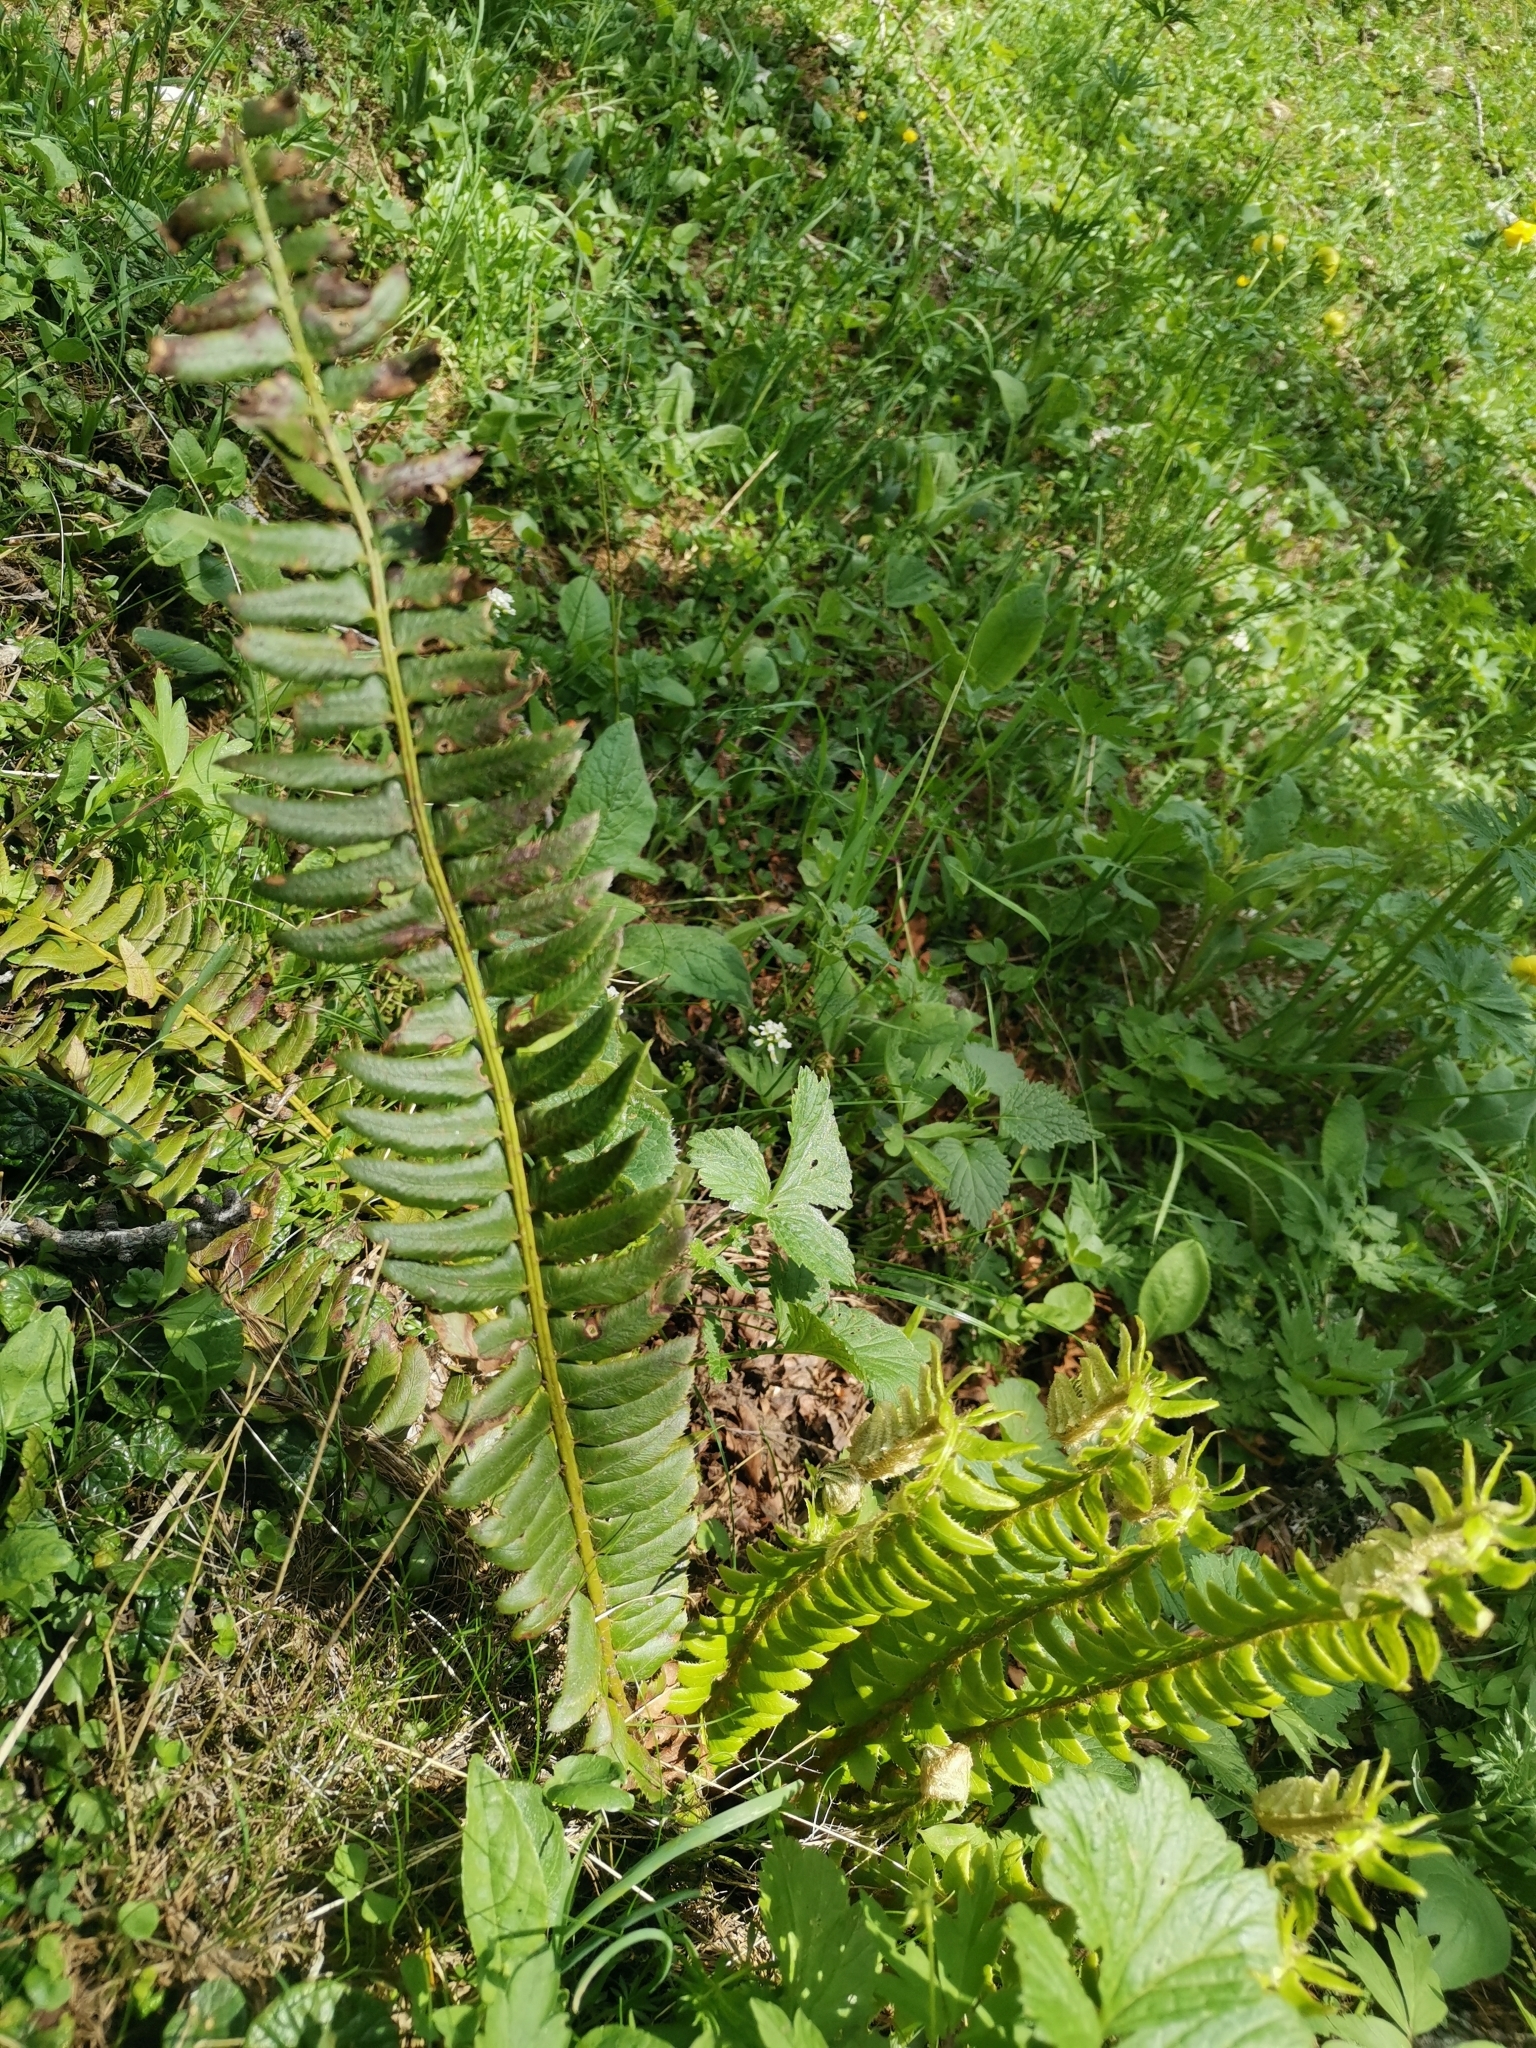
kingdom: Plantae
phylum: Tracheophyta
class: Polypodiopsida
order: Polypodiales
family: Dryopteridaceae
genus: Polystichum
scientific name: Polystichum lonchitis
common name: Holly fern
